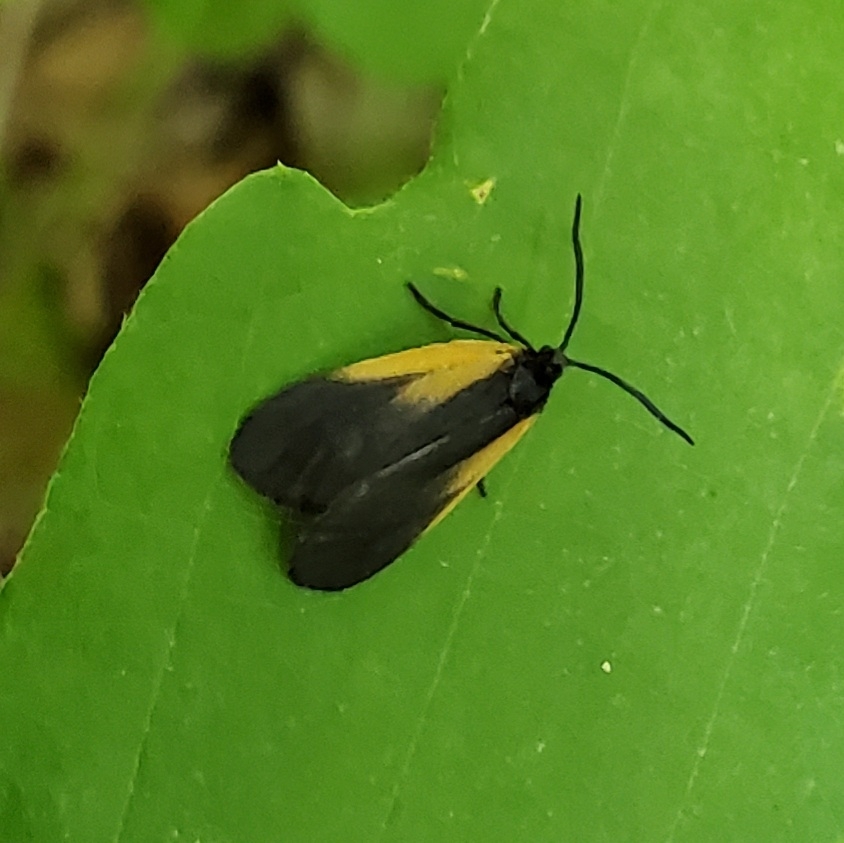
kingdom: Animalia
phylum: Arthropoda
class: Insecta
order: Lepidoptera
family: Zygaenidae
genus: Malthaca
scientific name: Malthaca dimidiata
